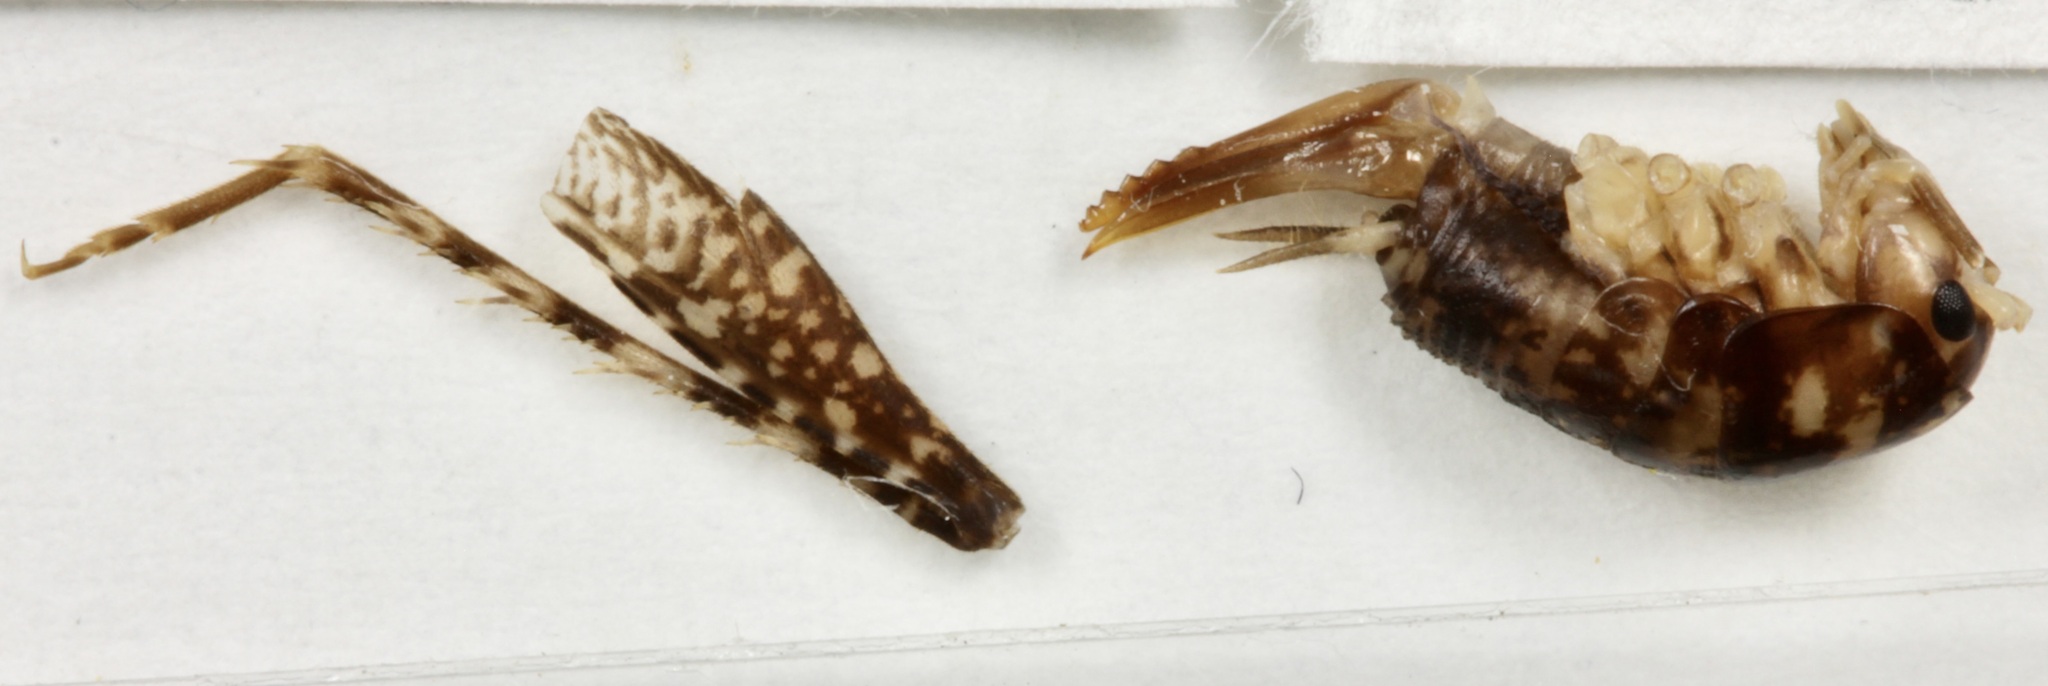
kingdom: Animalia
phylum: Arthropoda
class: Insecta
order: Orthoptera
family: Rhaphidophoridae
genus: Parvotettix
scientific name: Parvotettix domesticus
